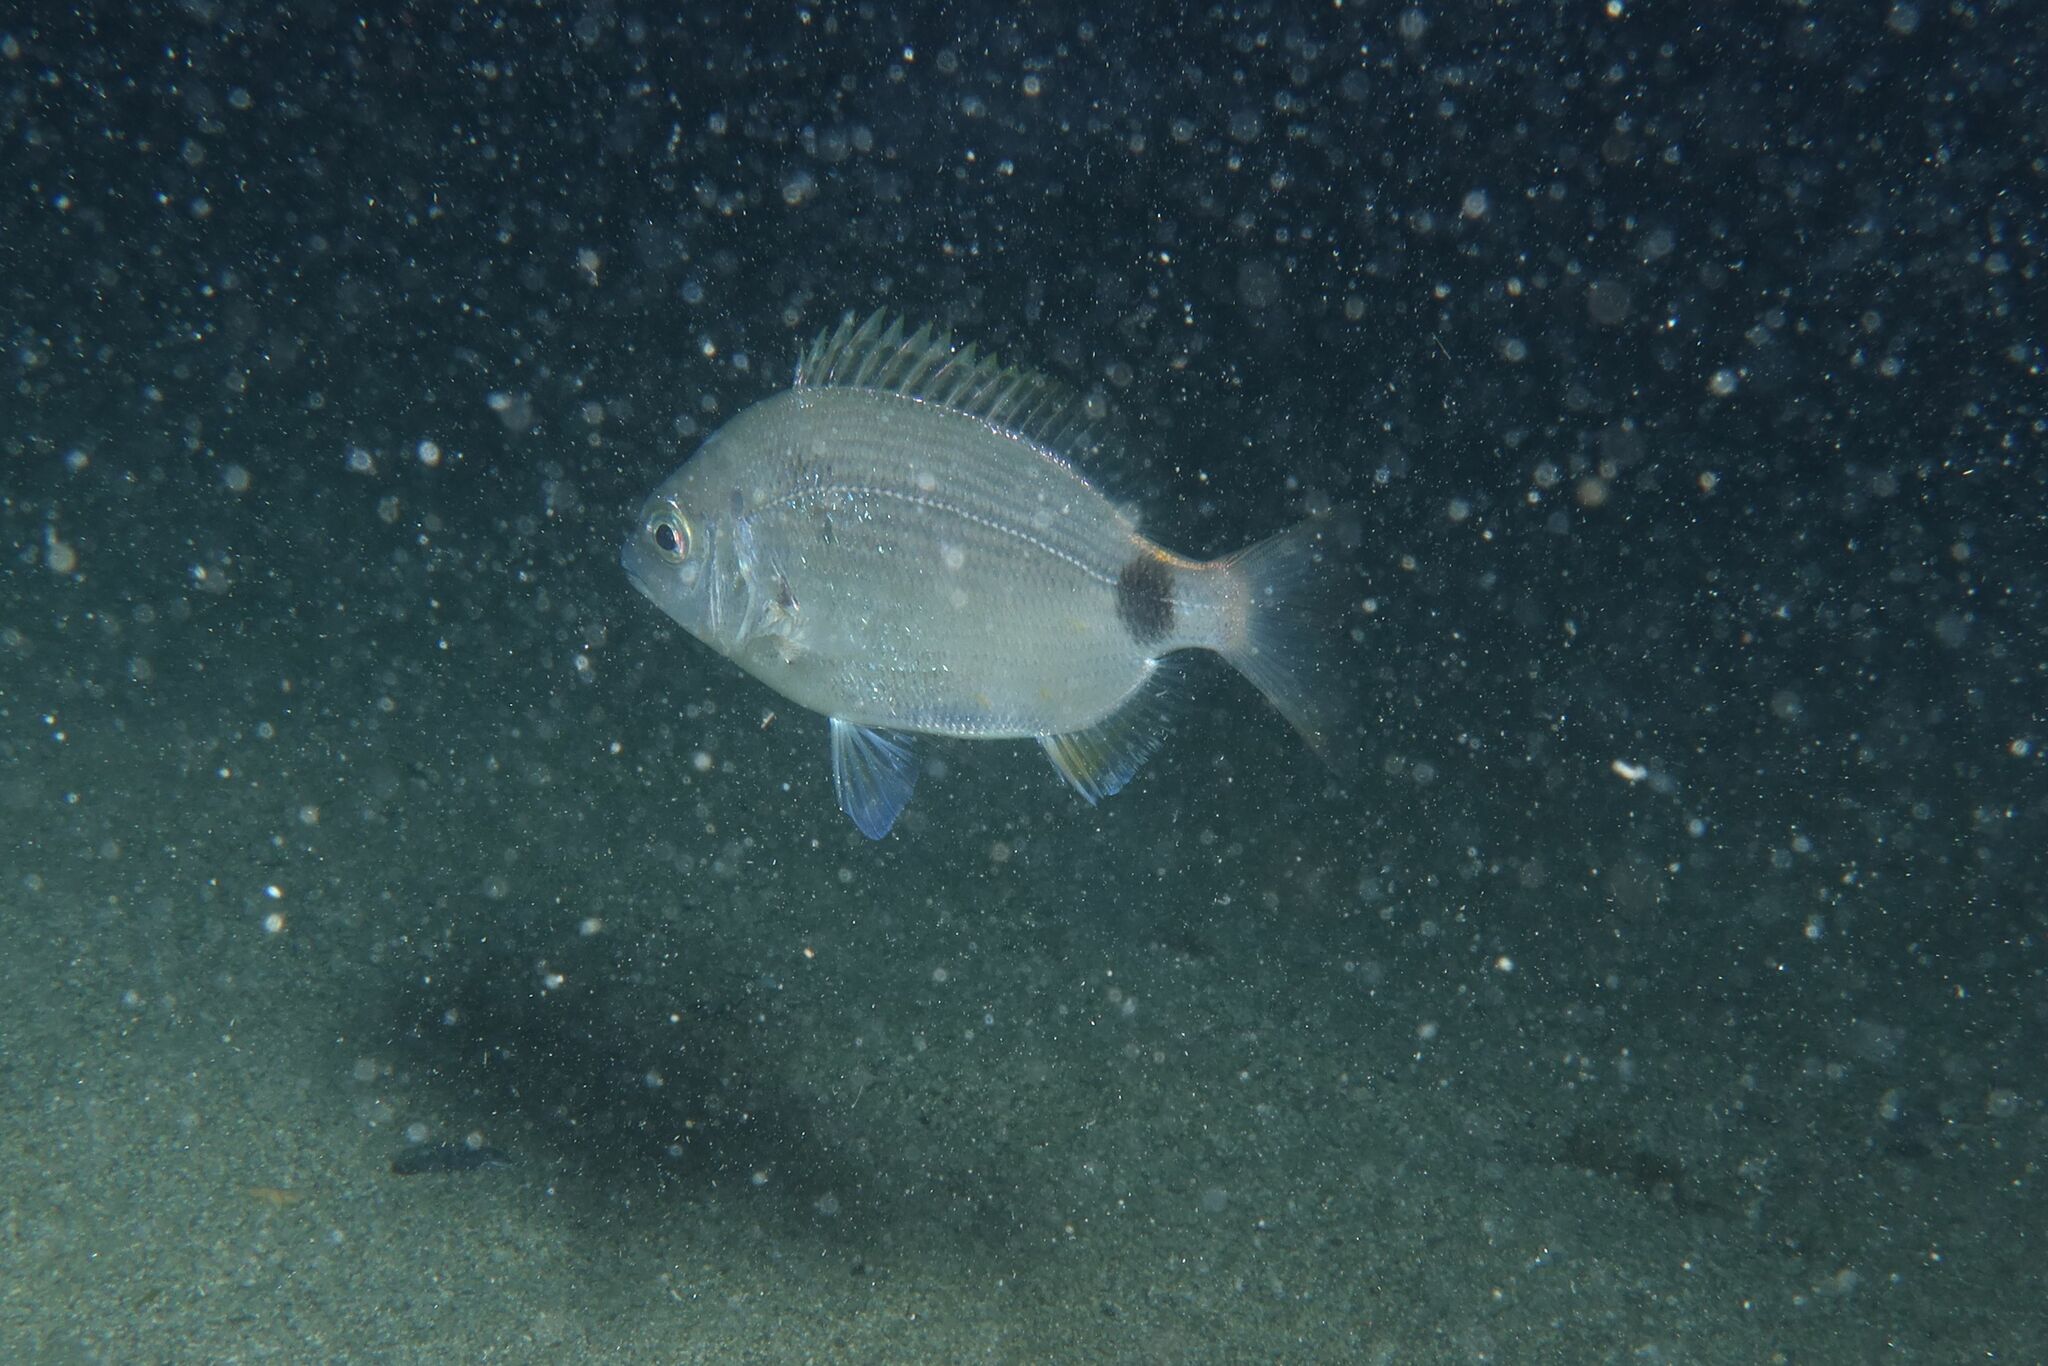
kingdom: Animalia
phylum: Chordata
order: Perciformes
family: Sparidae
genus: Diplodus
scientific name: Diplodus annularis
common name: Annular seabream
